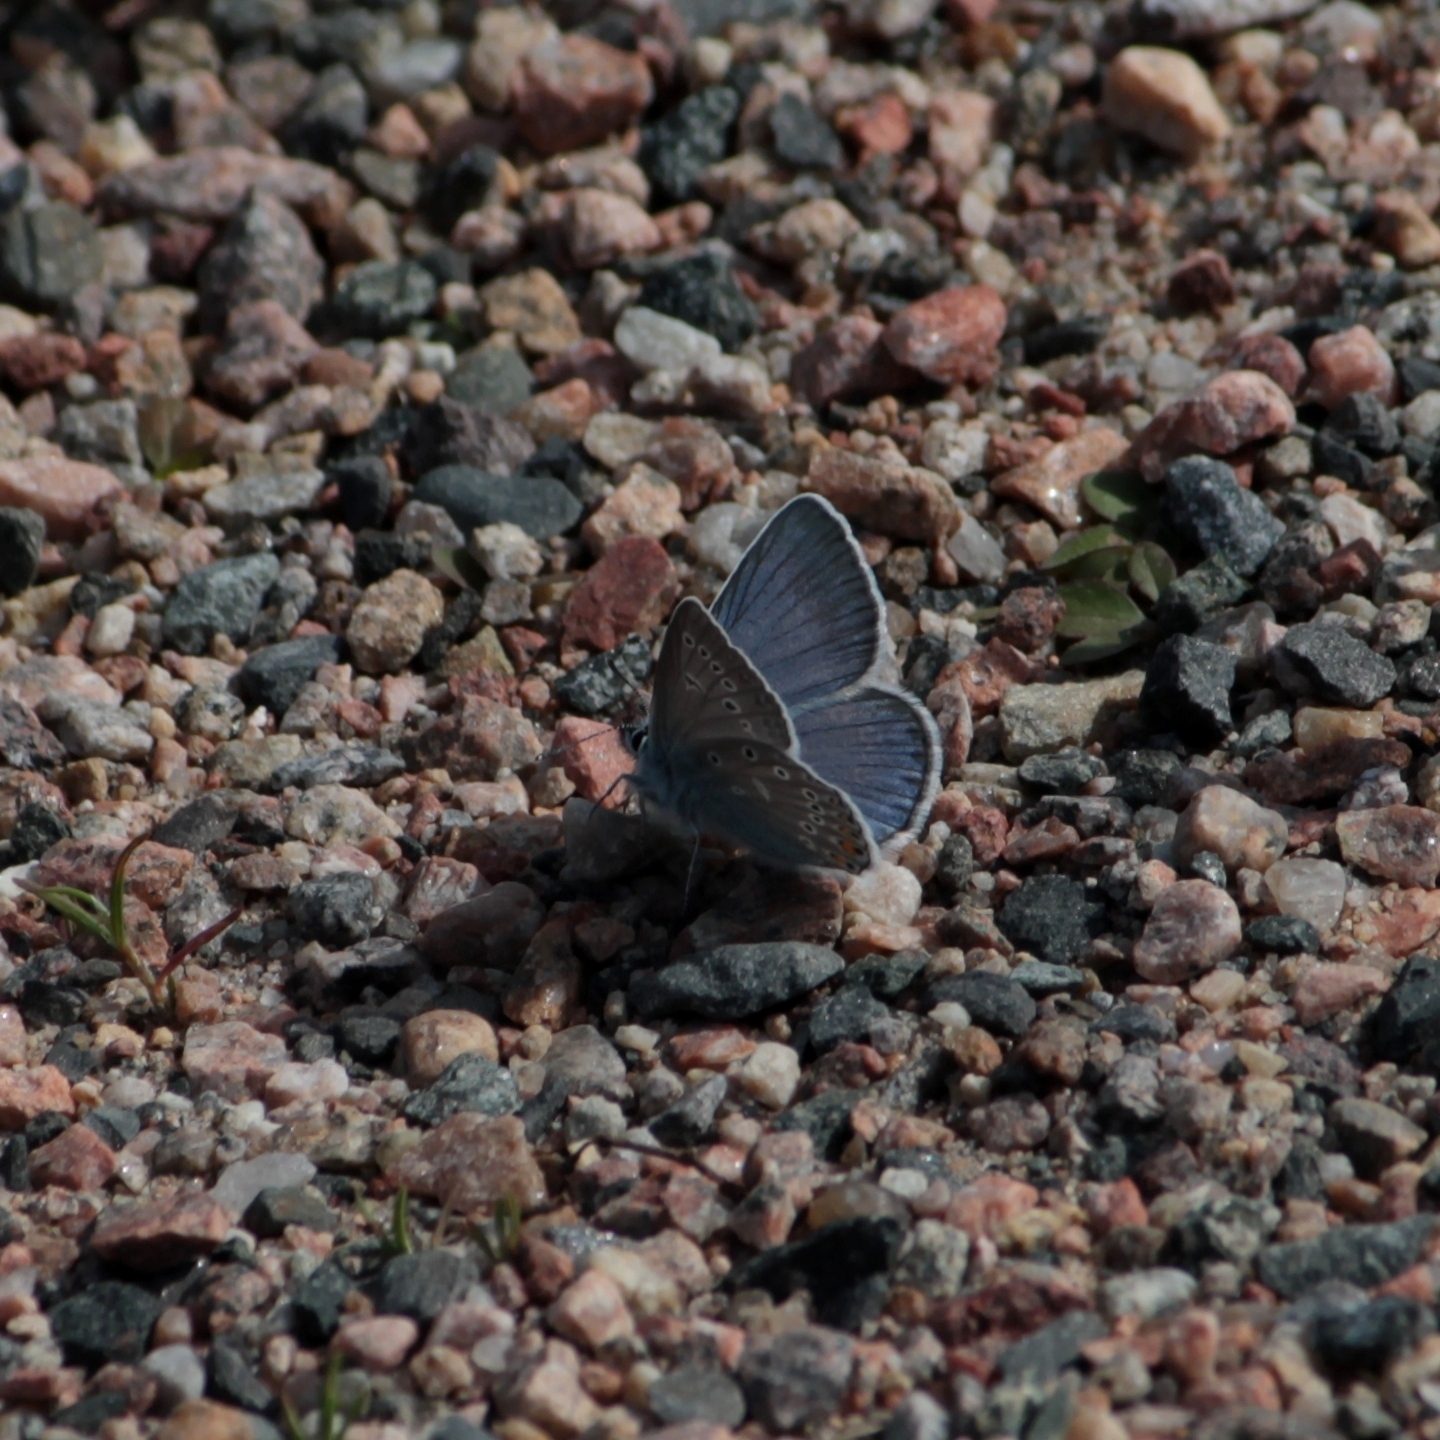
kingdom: Animalia
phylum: Arthropoda
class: Insecta
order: Lepidoptera
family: Lycaenidae
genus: Plebejus
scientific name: Plebejus amanda
